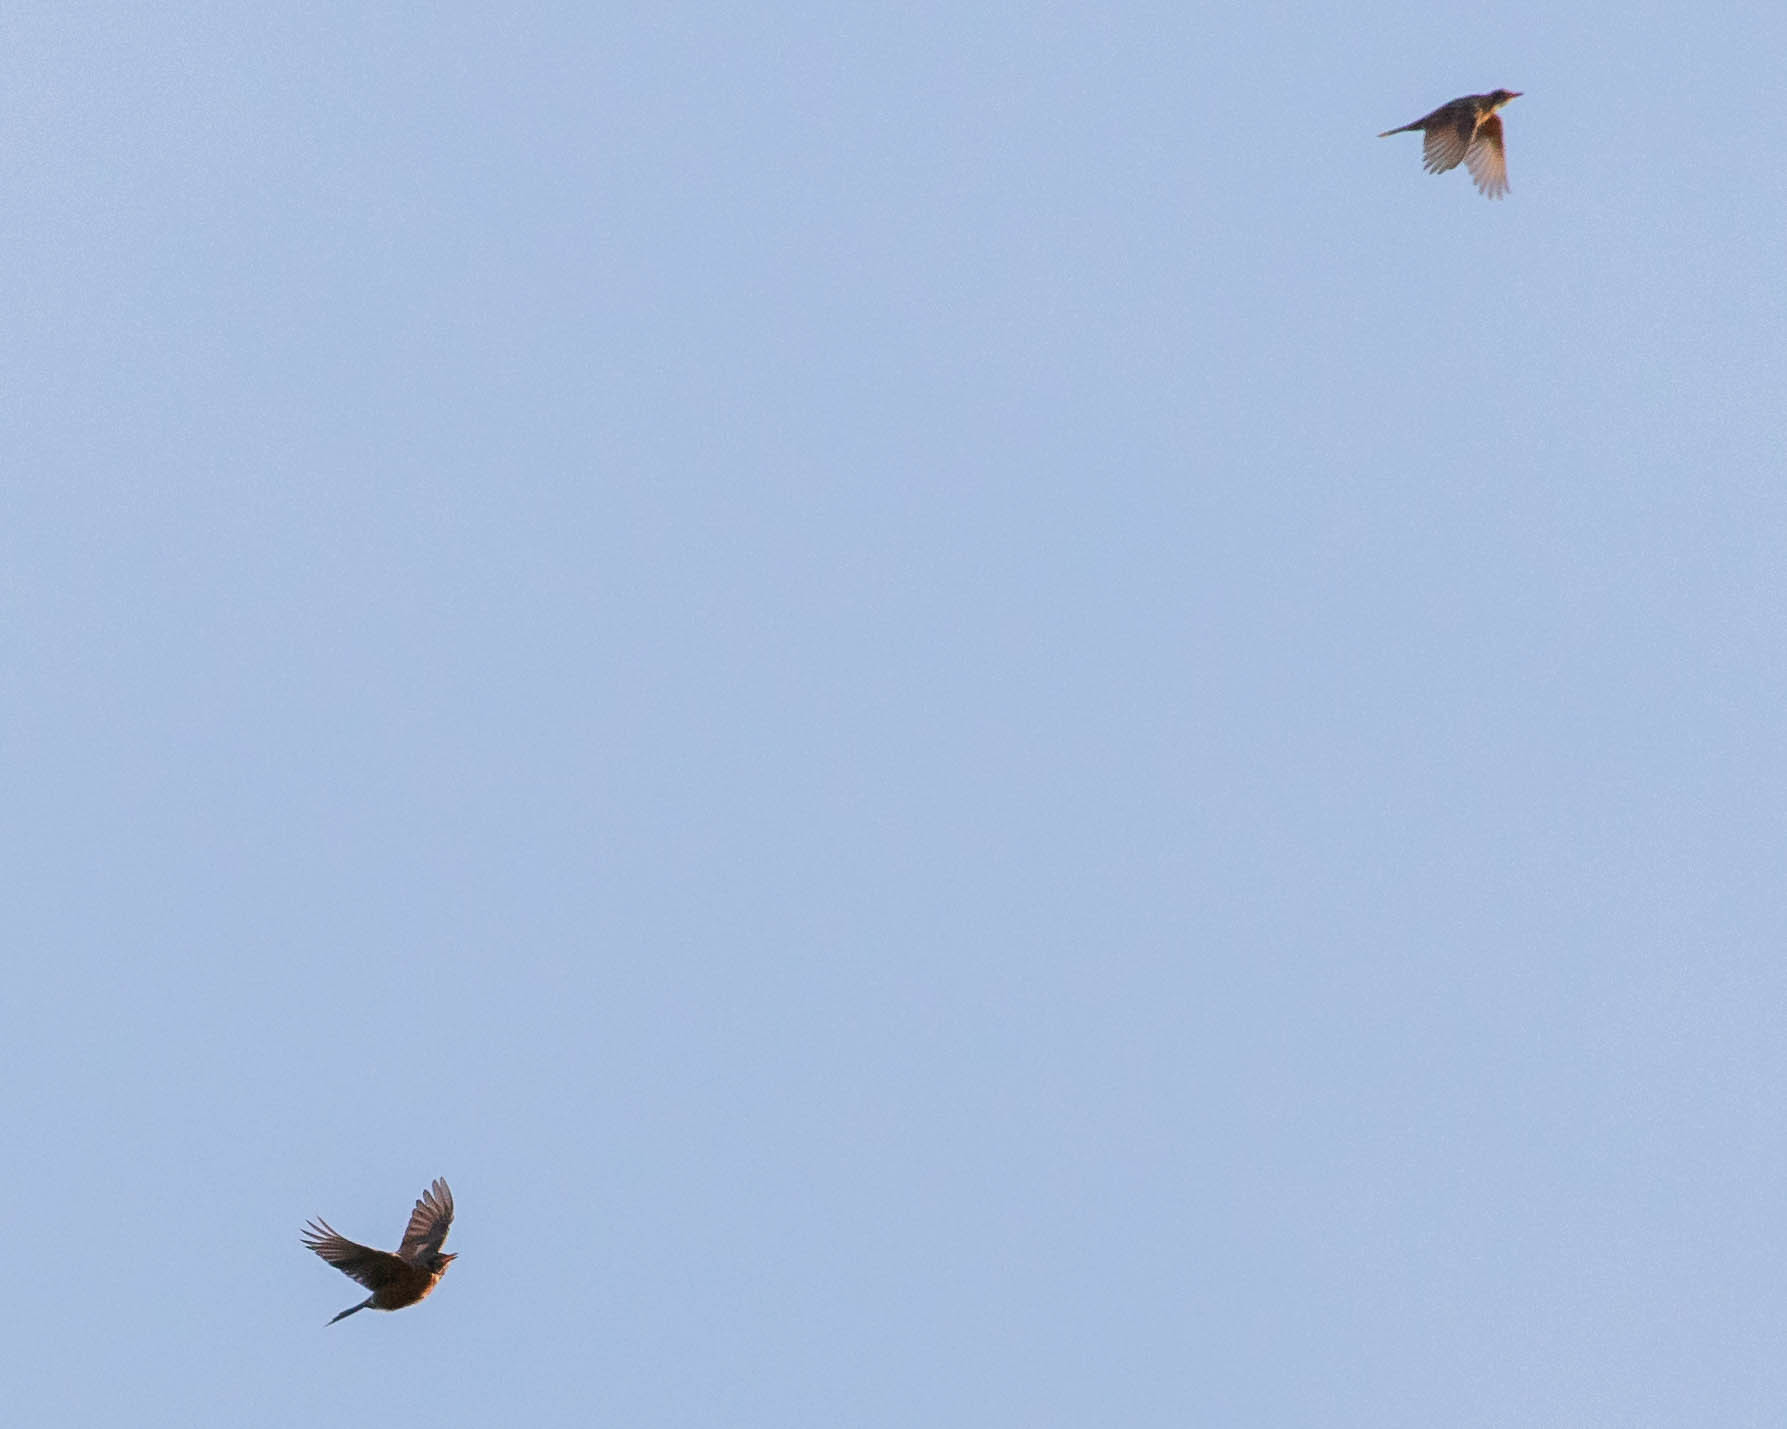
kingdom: Animalia
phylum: Chordata
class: Aves
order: Passeriformes
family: Turdidae
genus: Turdus
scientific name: Turdus migratorius
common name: American robin
